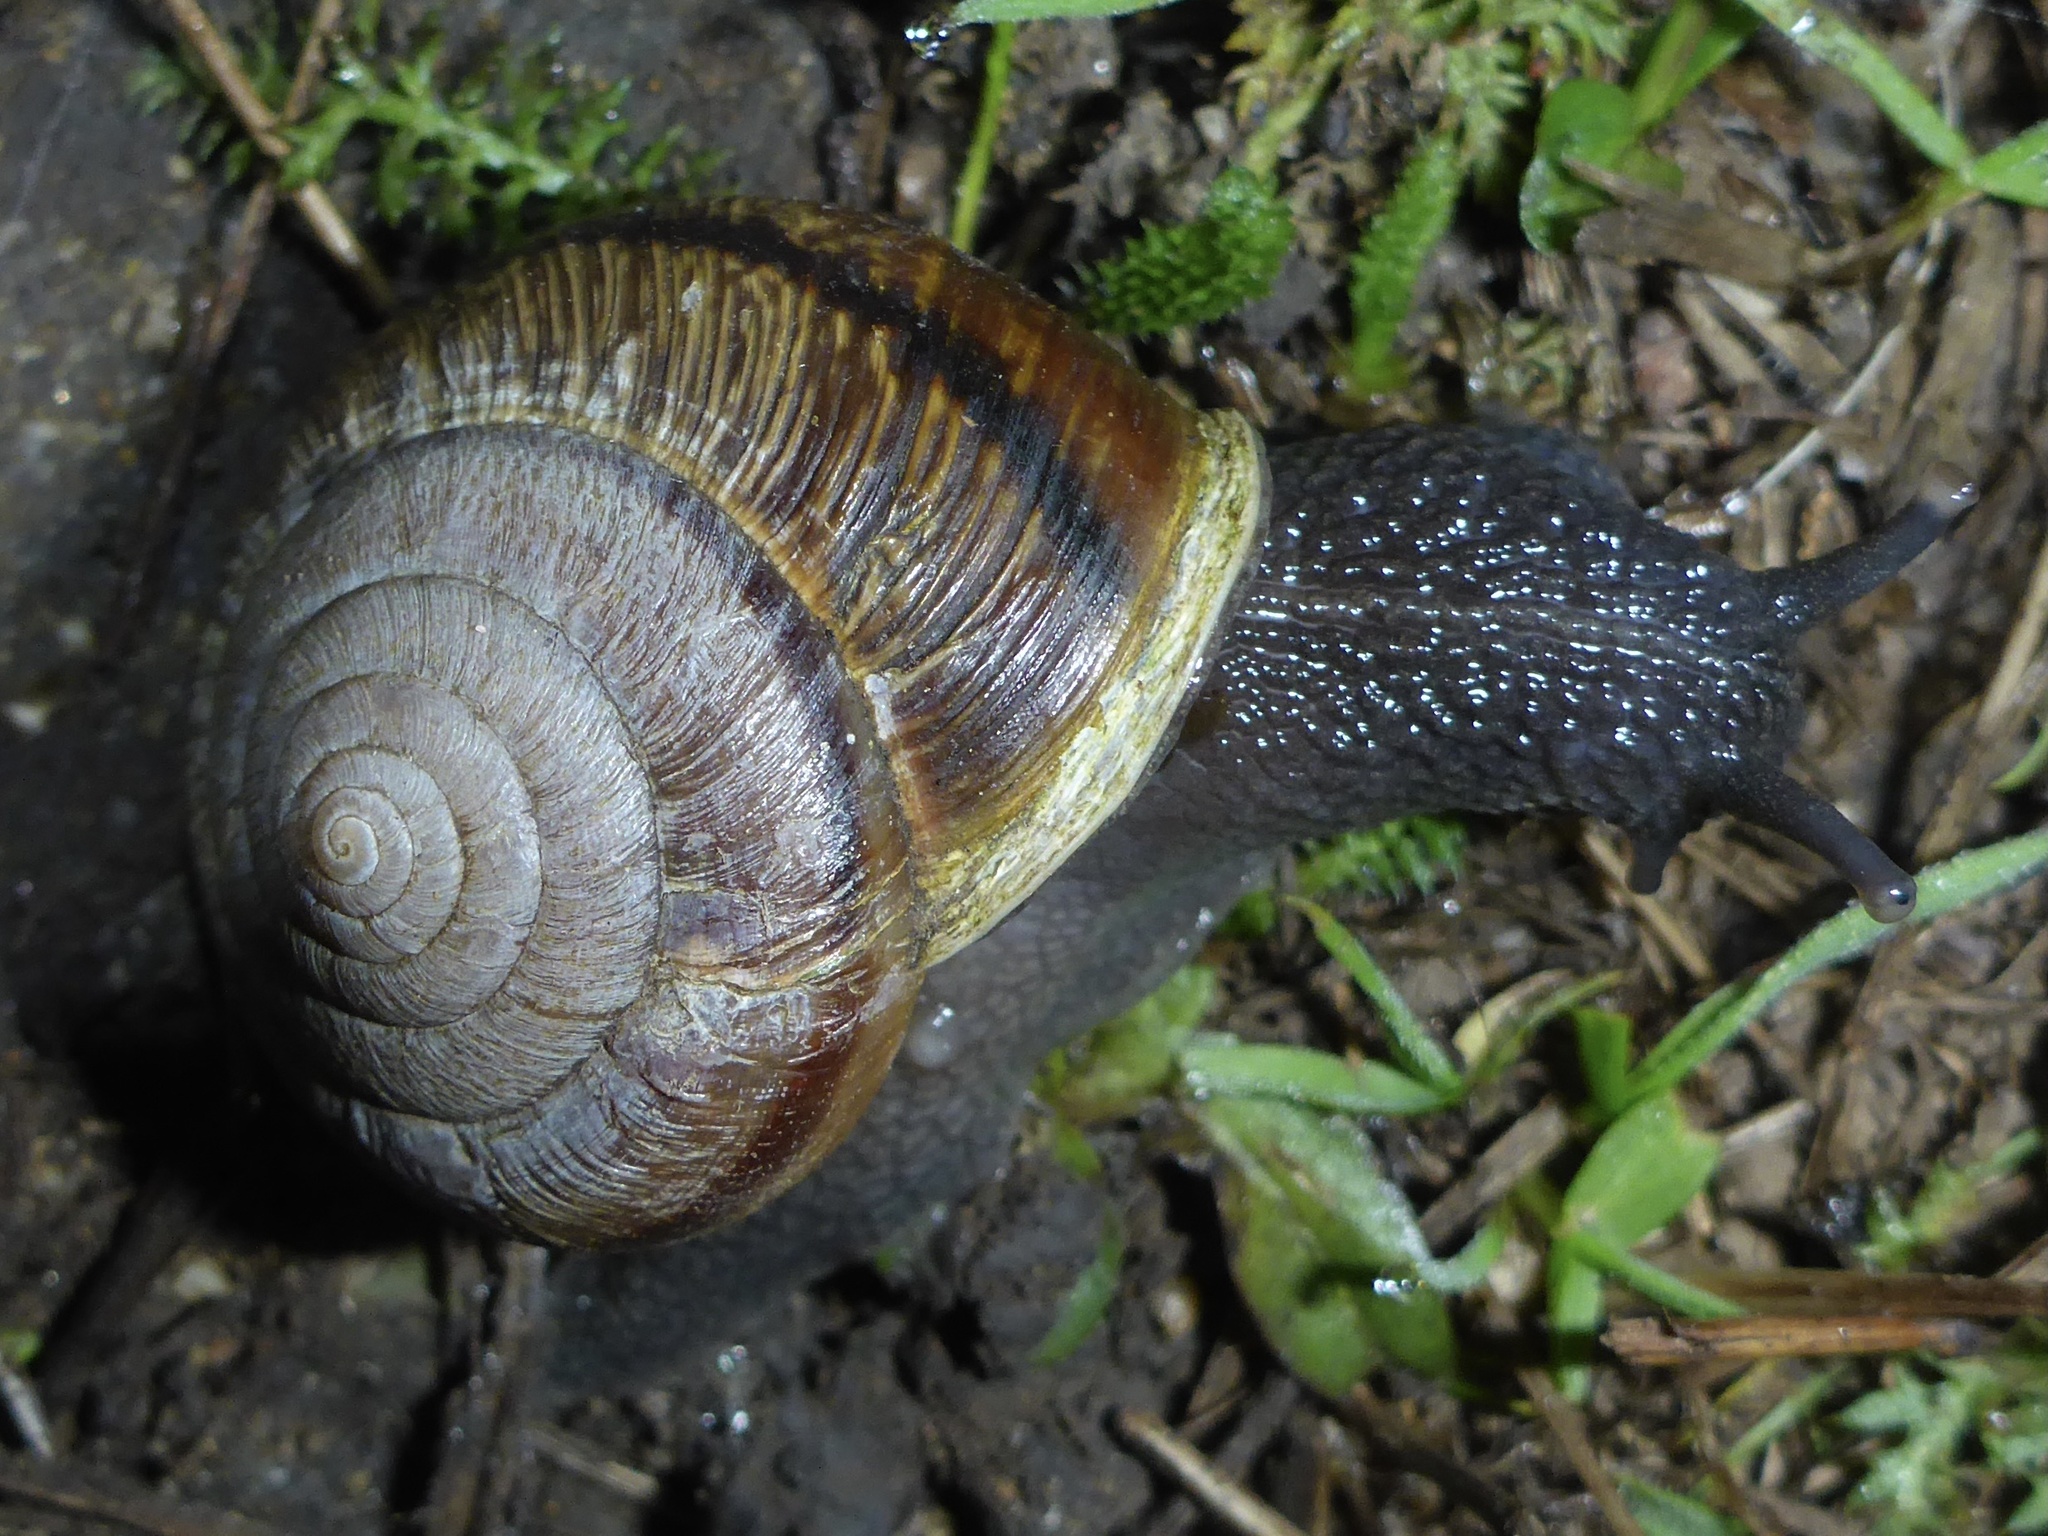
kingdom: Animalia
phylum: Mollusca
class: Gastropoda
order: Stylommatophora
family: Xanthonychidae
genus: Helminthoglypta
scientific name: Helminthoglypta arrosa
